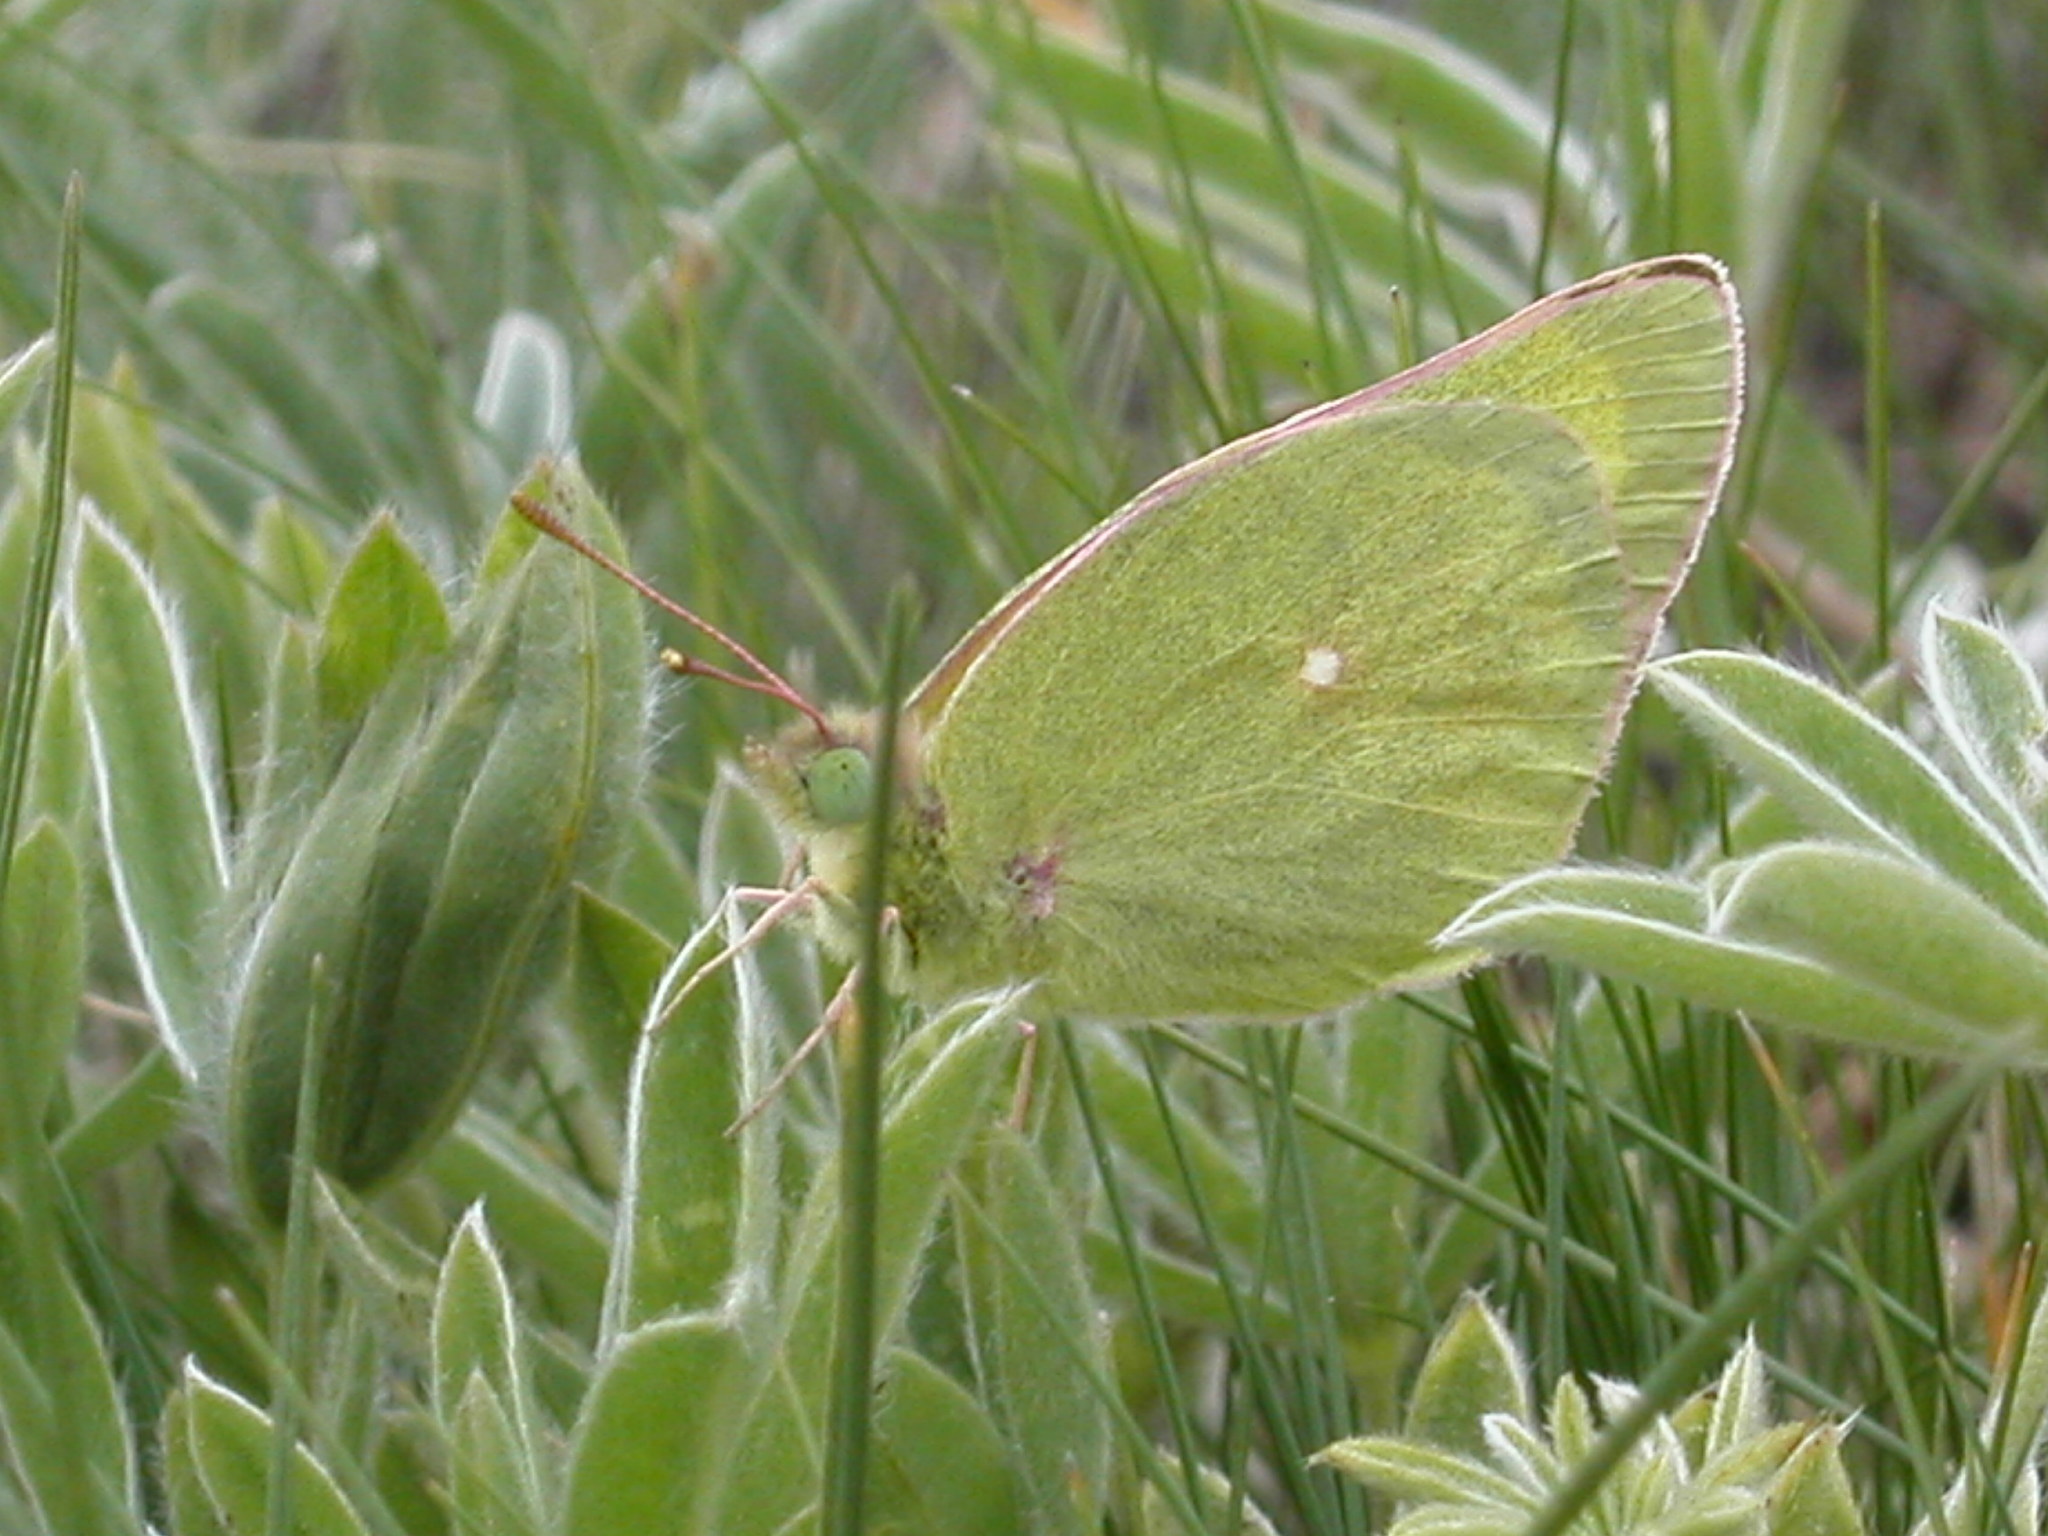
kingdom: Animalia
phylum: Arthropoda
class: Insecta
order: Lepidoptera
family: Pieridae
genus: Colias
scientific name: Colias alexandra
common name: Alexandra sulphur
